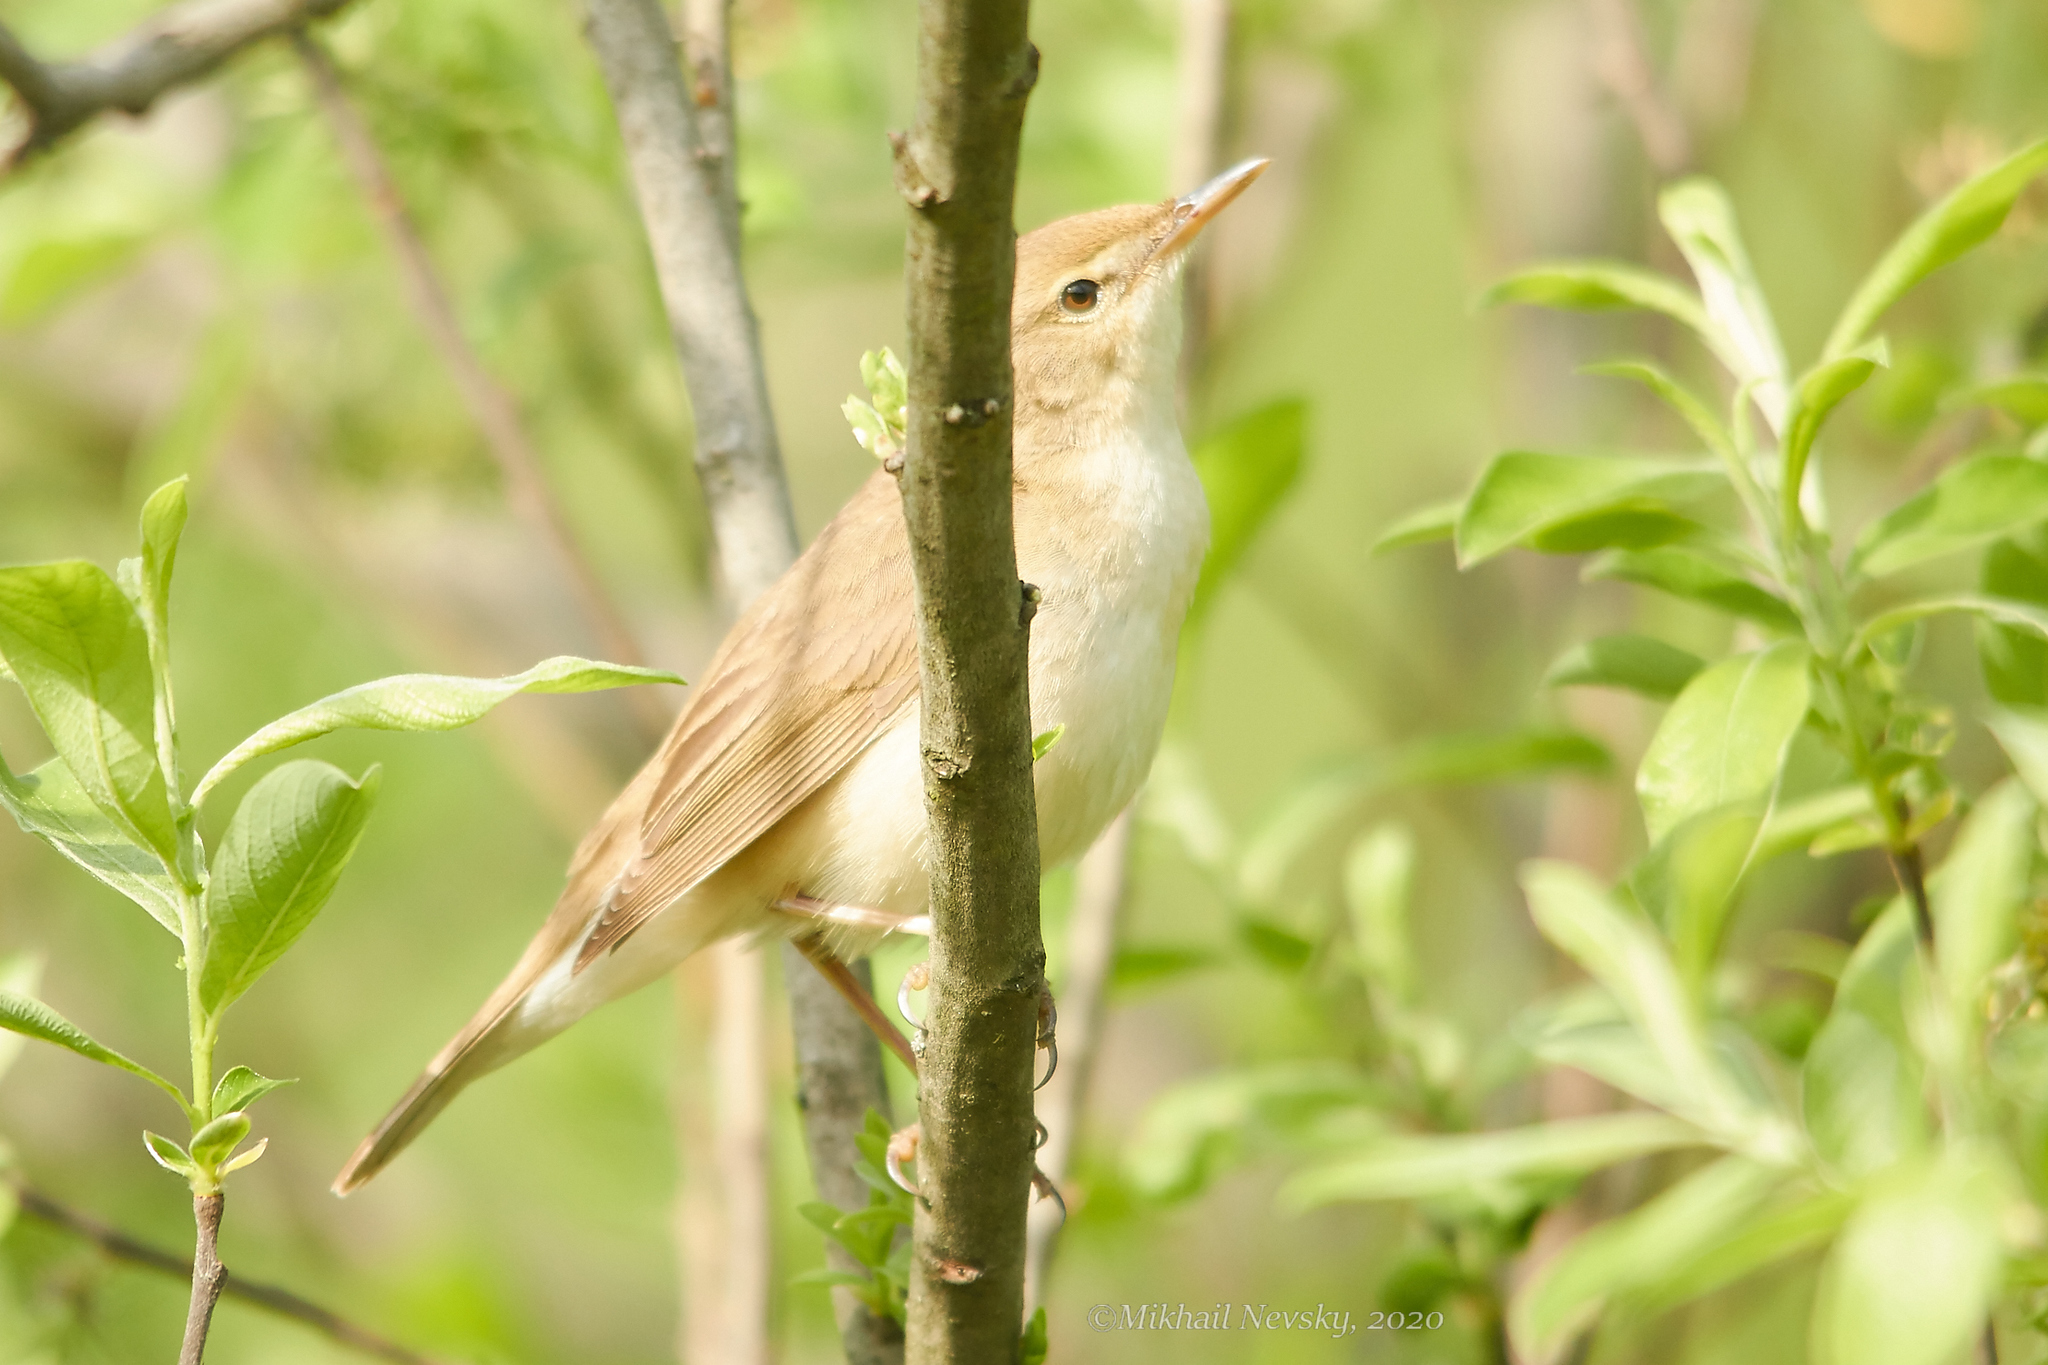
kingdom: Animalia
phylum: Chordata
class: Aves
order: Passeriformes
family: Acrocephalidae
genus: Acrocephalus
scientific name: Acrocephalus palustris
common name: Marsh warbler
